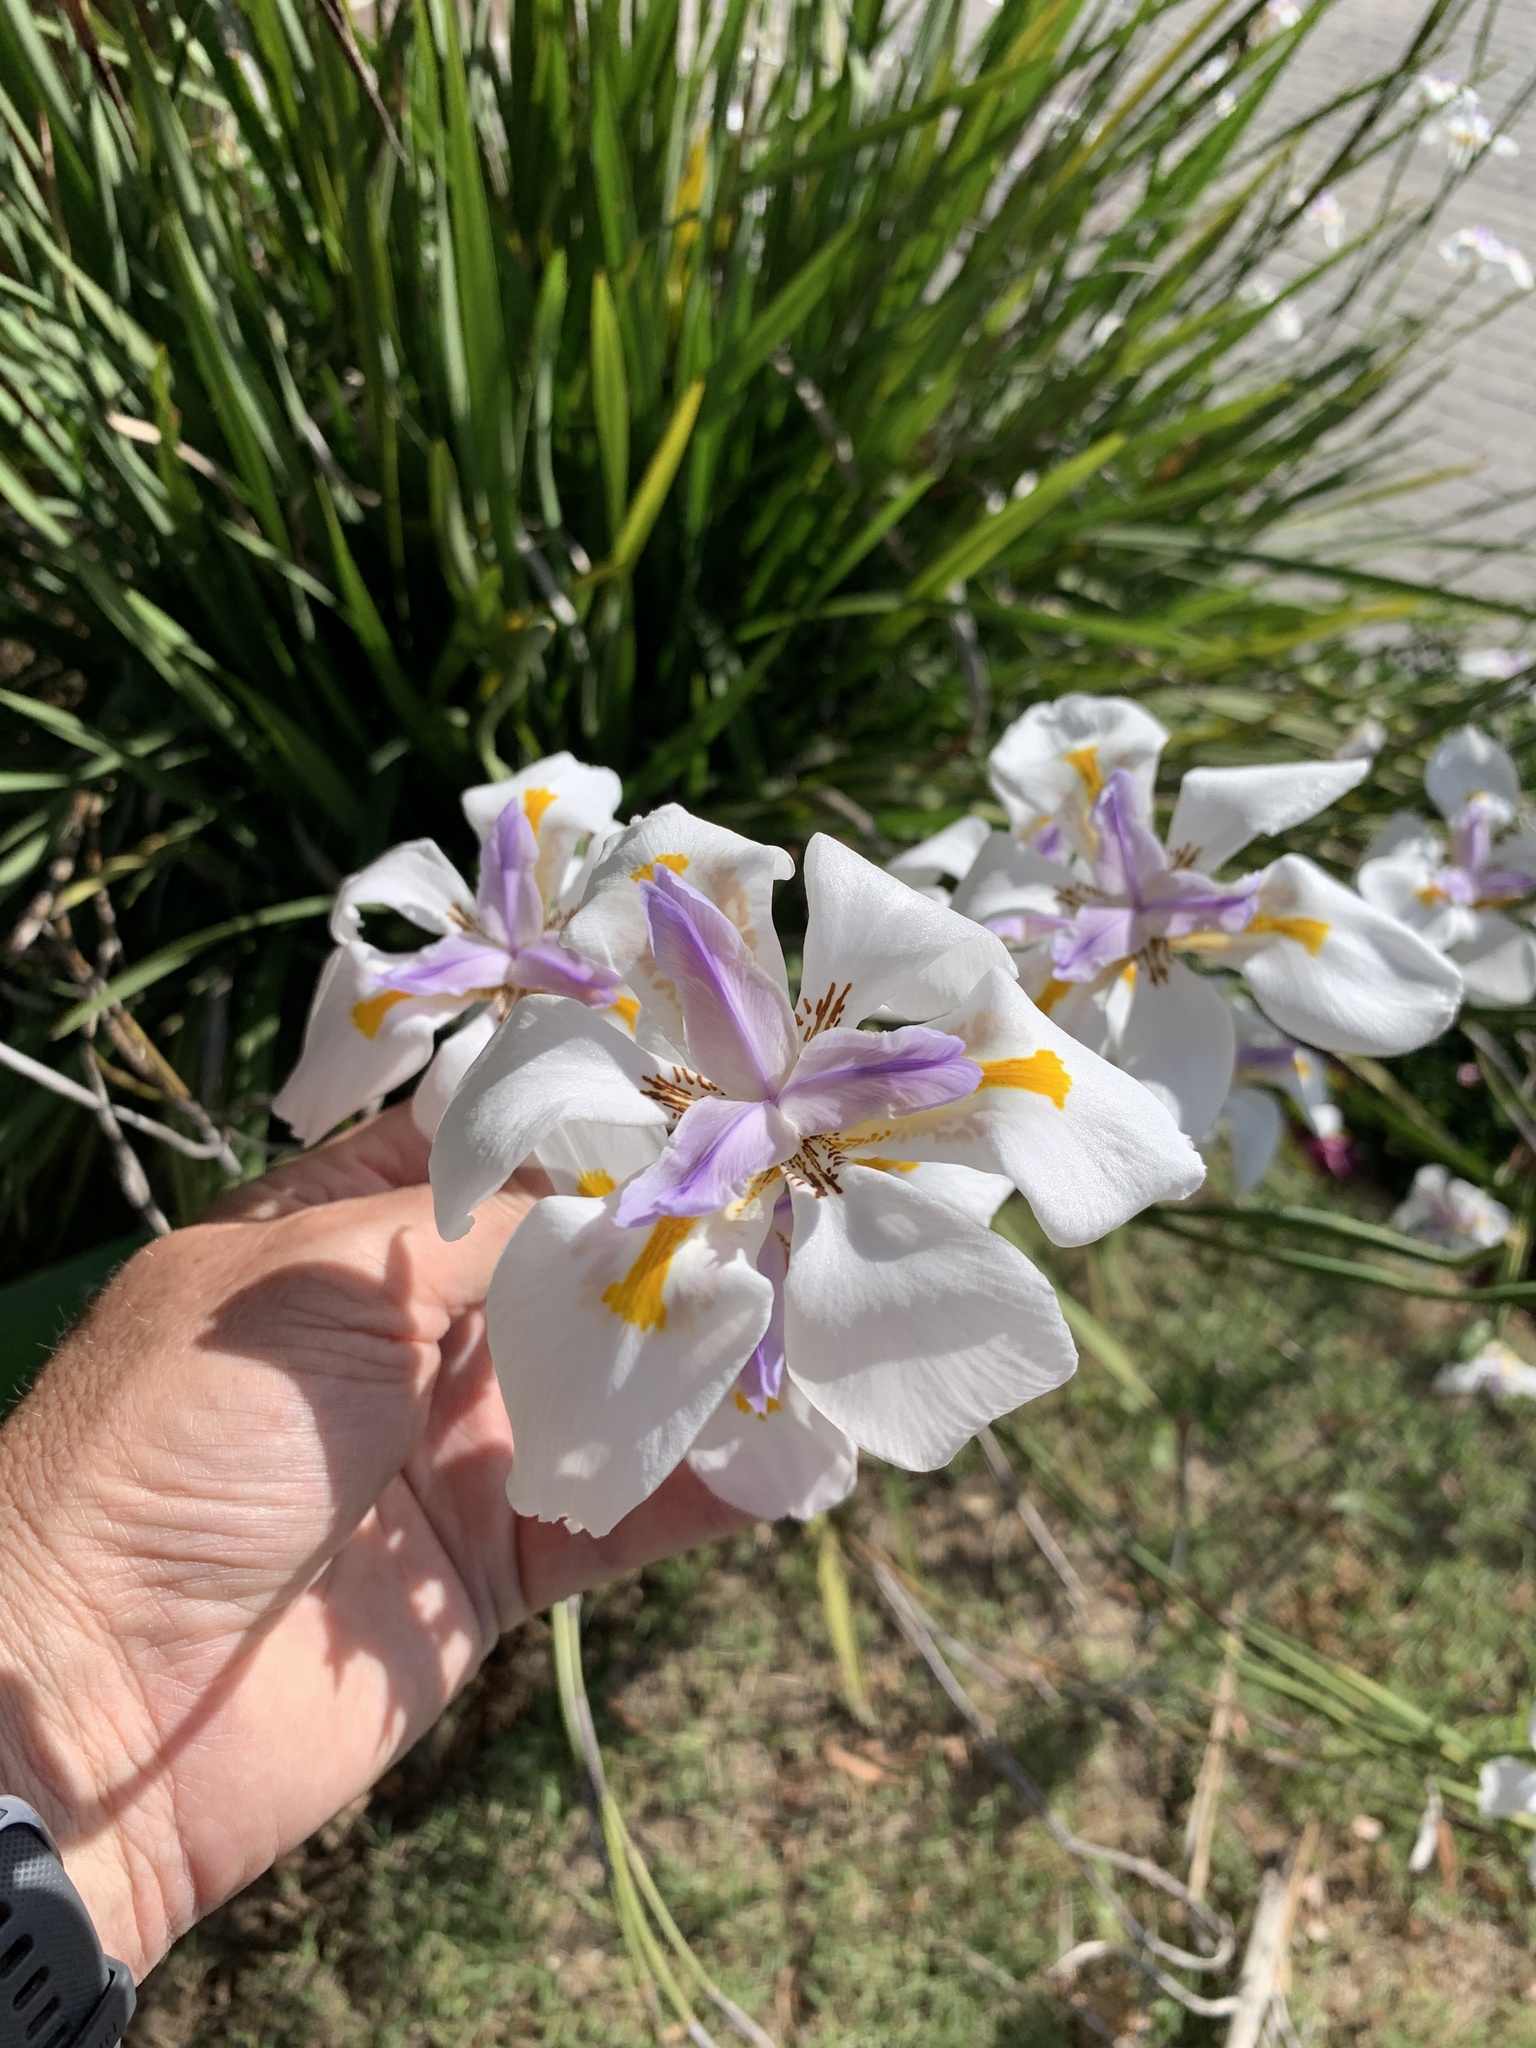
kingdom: Plantae
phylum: Tracheophyta
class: Liliopsida
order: Asparagales
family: Iridaceae
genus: Dietes
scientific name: Dietes grandiflora
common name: Wild iris
